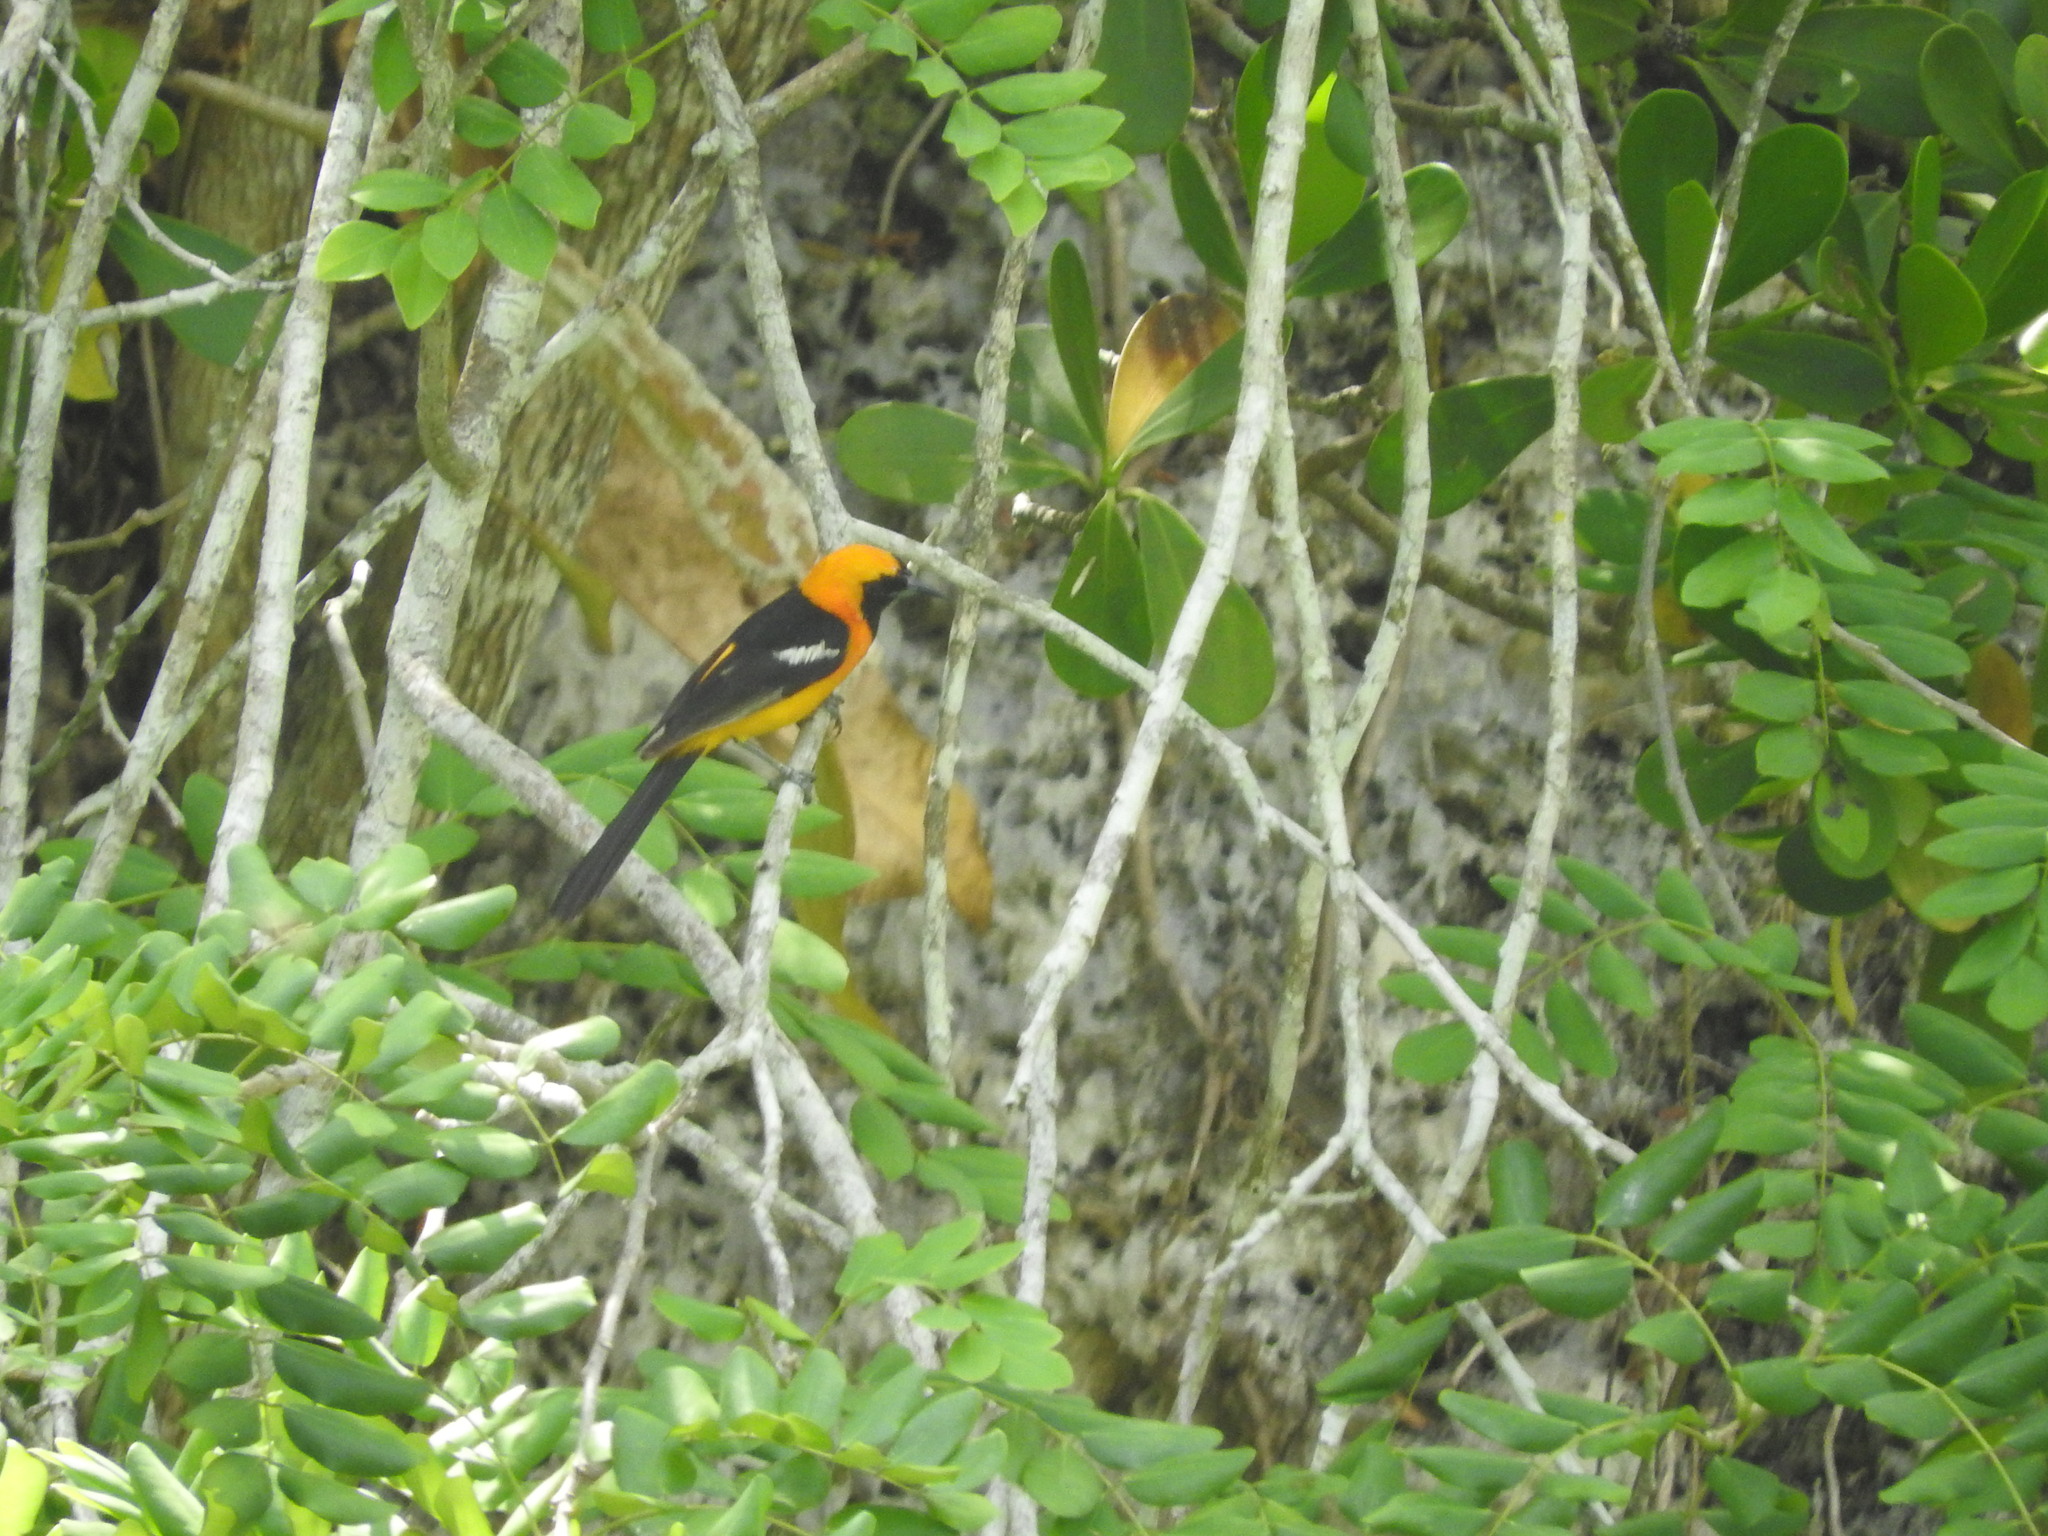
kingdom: Animalia
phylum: Chordata
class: Aves
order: Passeriformes
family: Icteridae
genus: Icterus
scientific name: Icterus cucullatus
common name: Hooded oriole
